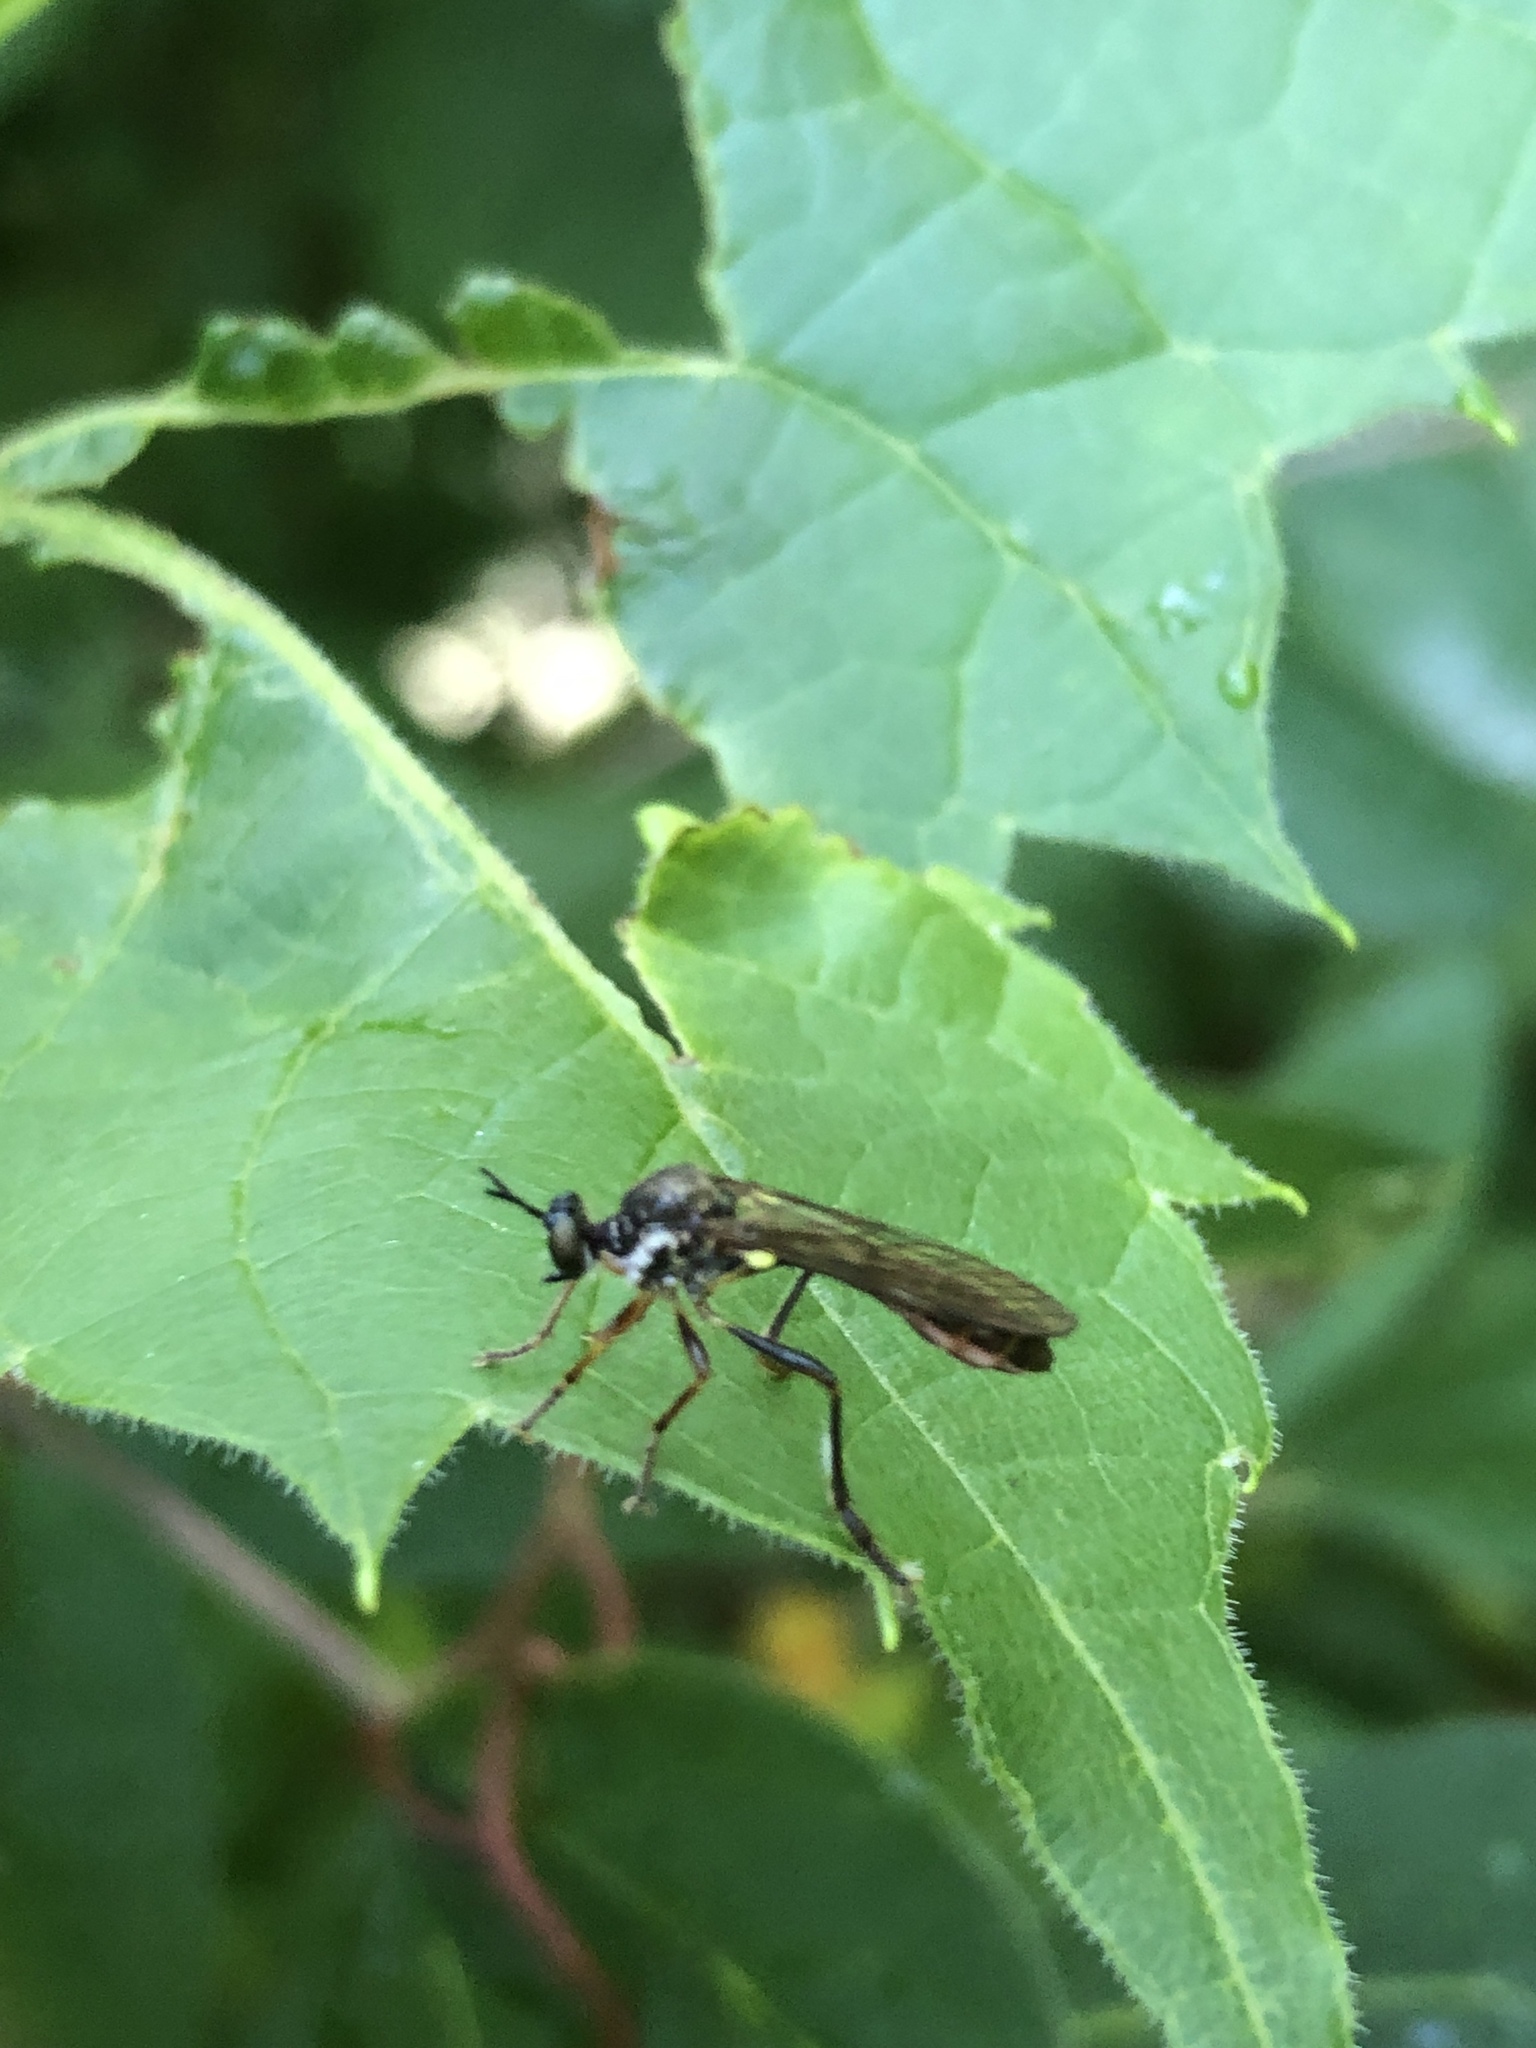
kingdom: Animalia
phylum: Arthropoda
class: Insecta
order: Diptera
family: Asilidae
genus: Dioctria
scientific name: Dioctria hyalipennis
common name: Stripe-legged robberfly
